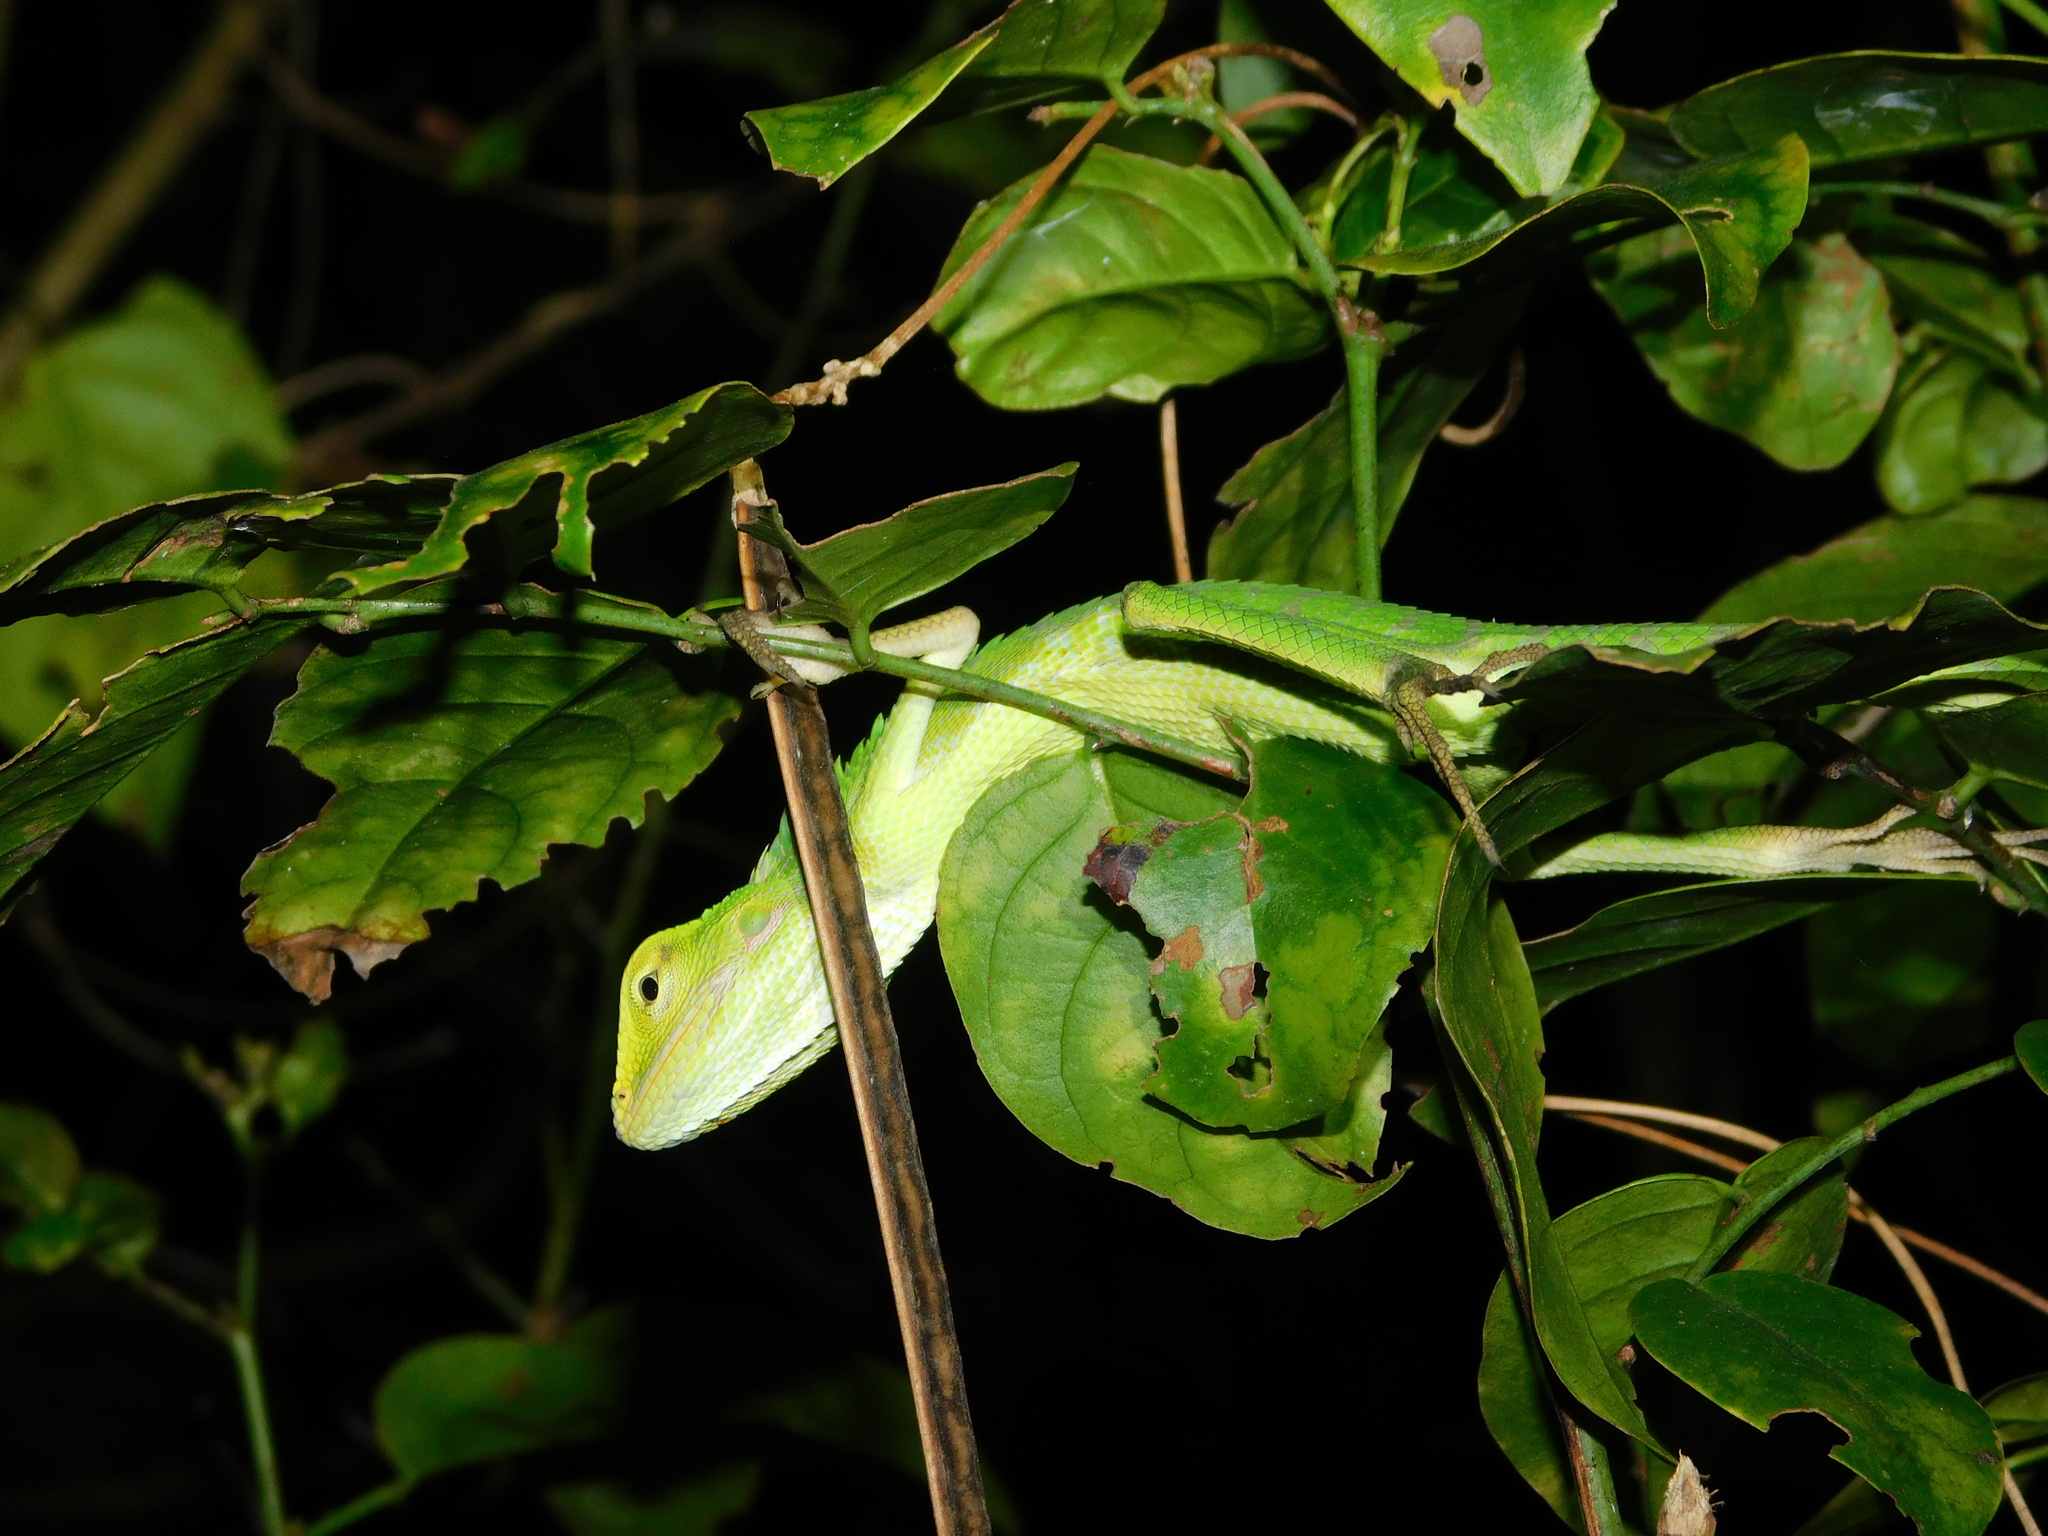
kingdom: Animalia
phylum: Chordata
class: Squamata
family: Agamidae
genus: Bronchocela
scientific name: Bronchocela jubata
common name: Maned forest lizard
